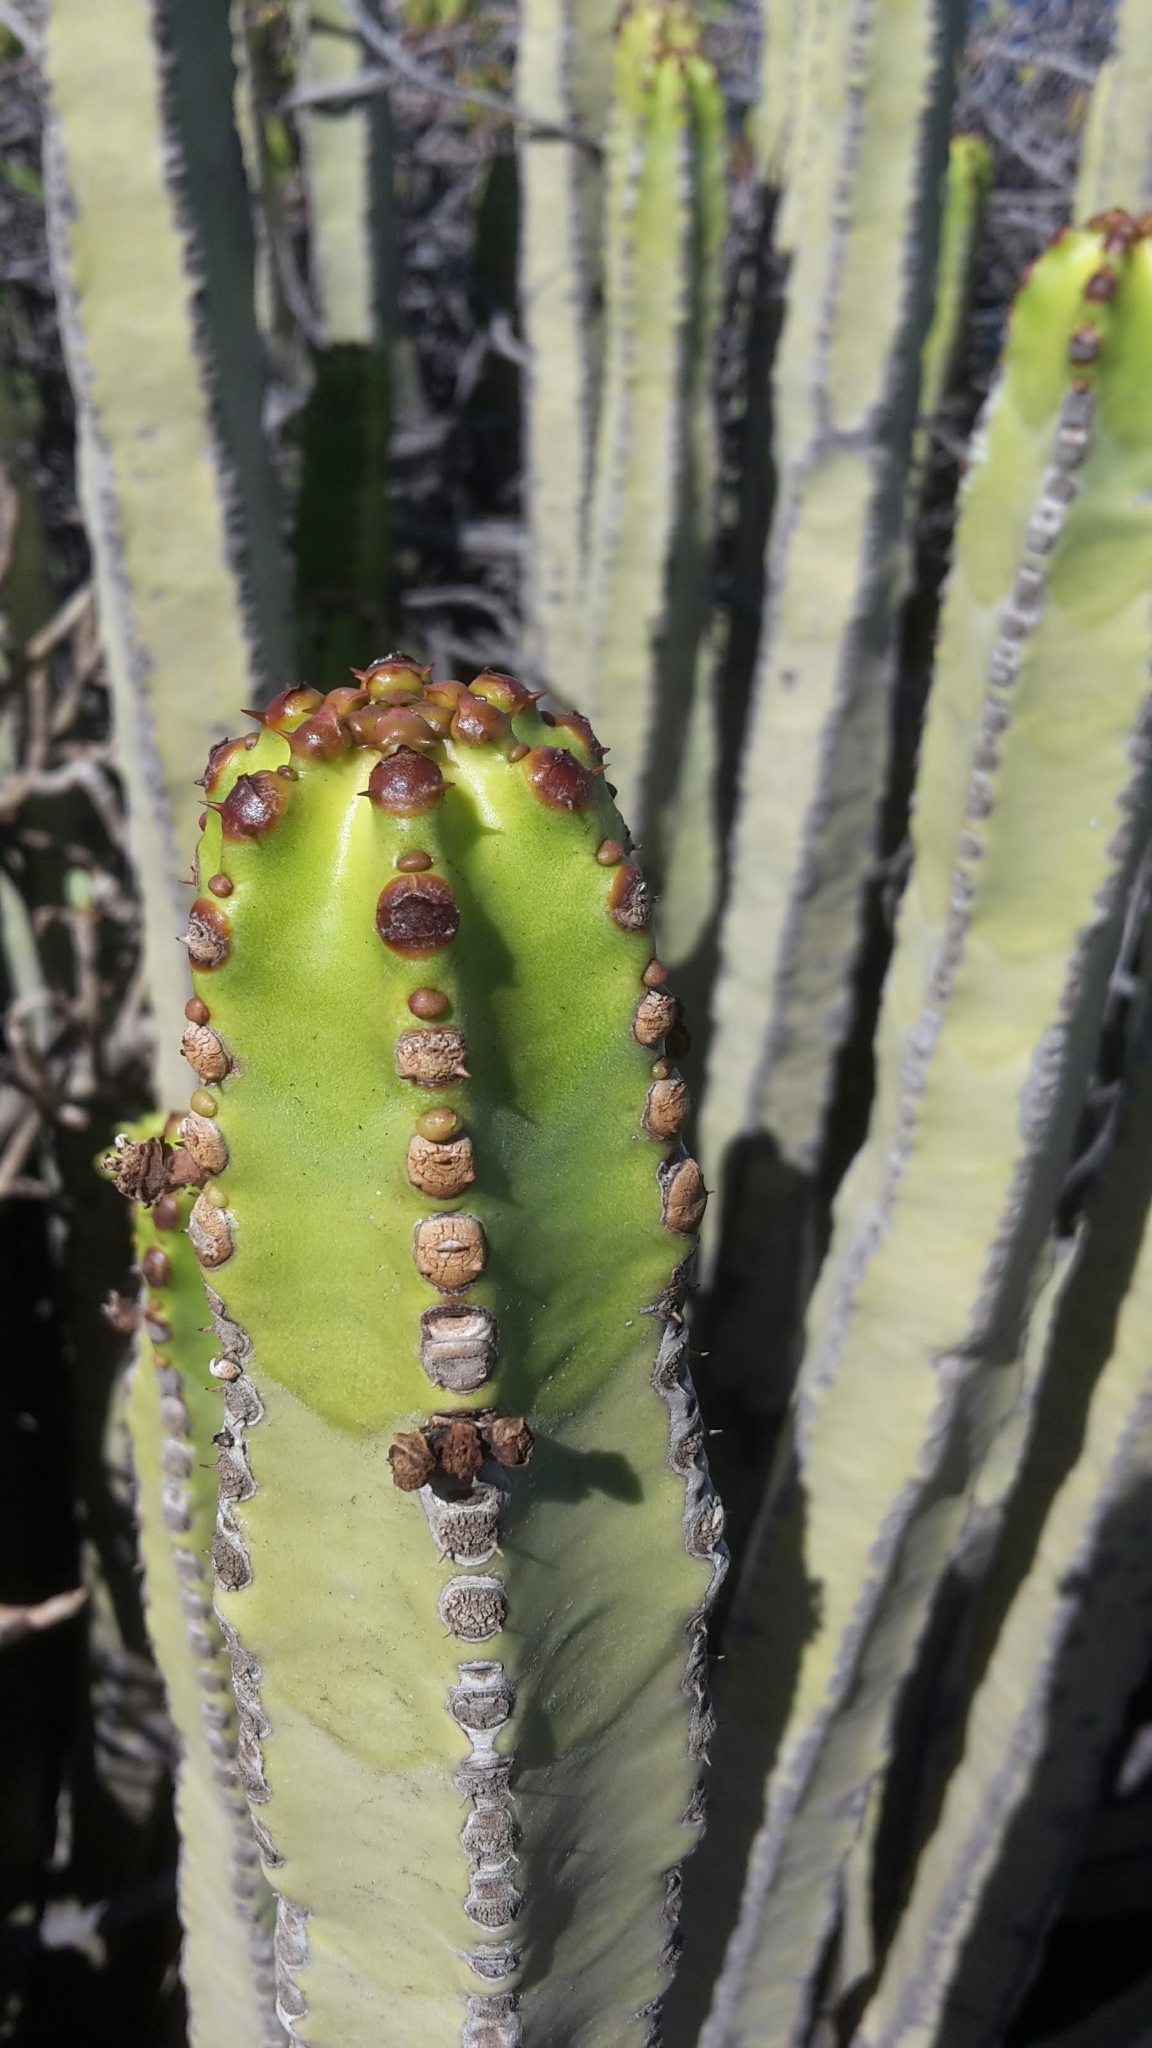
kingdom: Plantae
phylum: Tracheophyta
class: Magnoliopsida
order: Malpighiales
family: Euphorbiaceae
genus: Euphorbia
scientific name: Euphorbia canariensis
